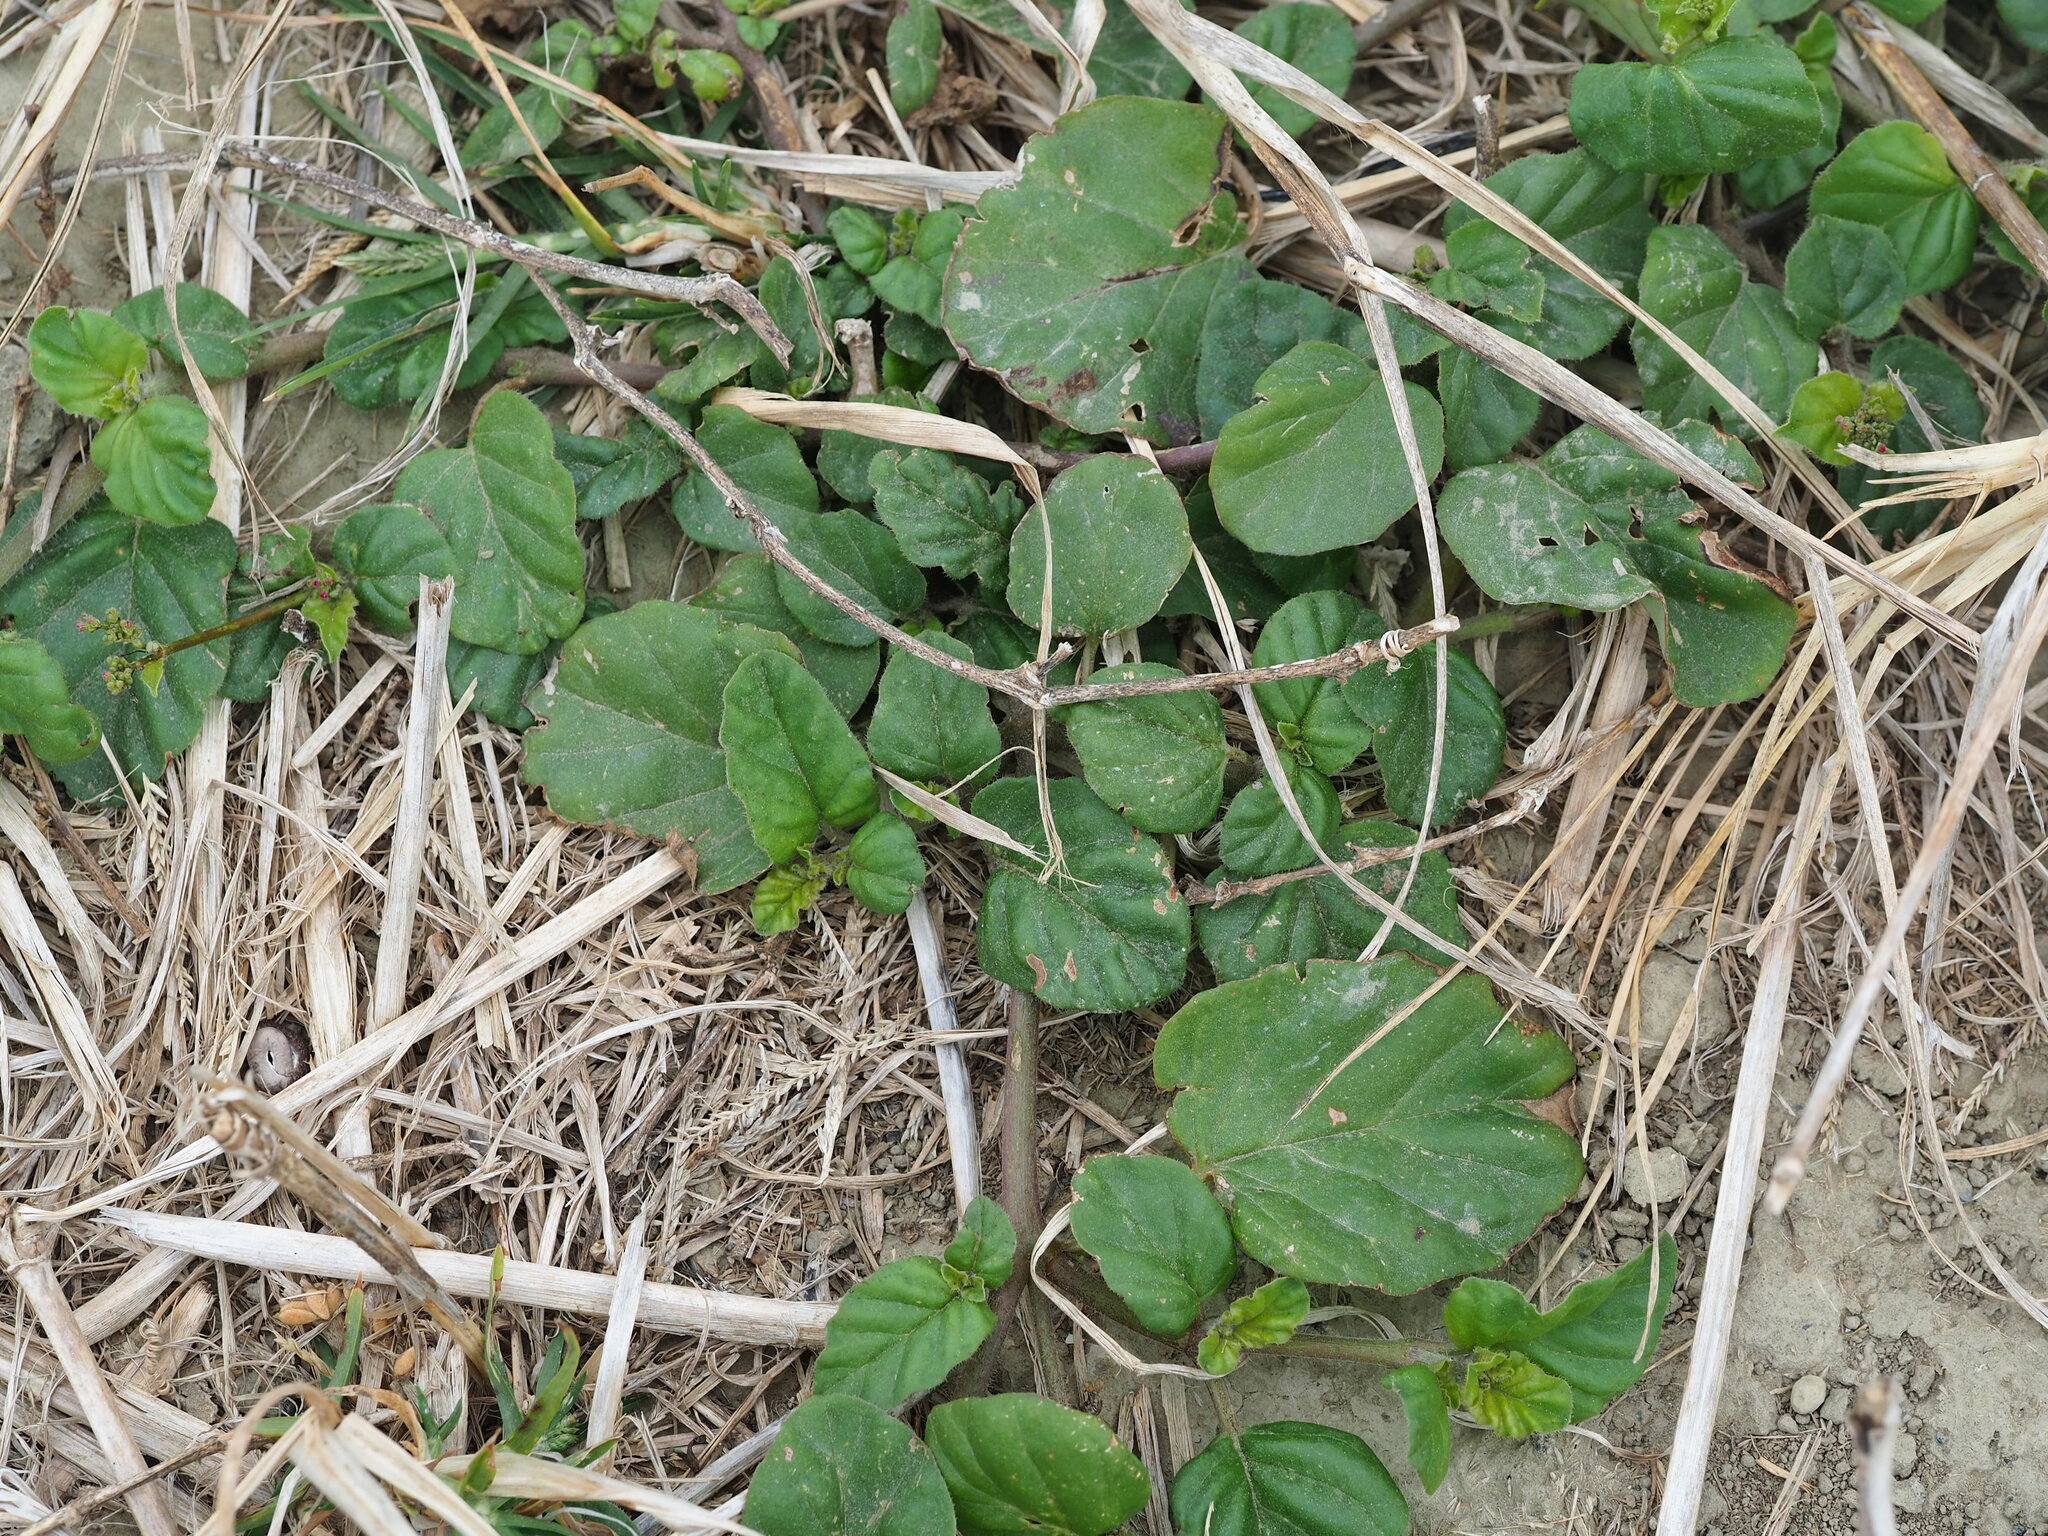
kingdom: Plantae
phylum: Tracheophyta
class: Magnoliopsida
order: Caryophyllales
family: Nyctaginaceae
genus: Boerhavia
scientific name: Boerhavia coccinea
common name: Scarlet spiderling
